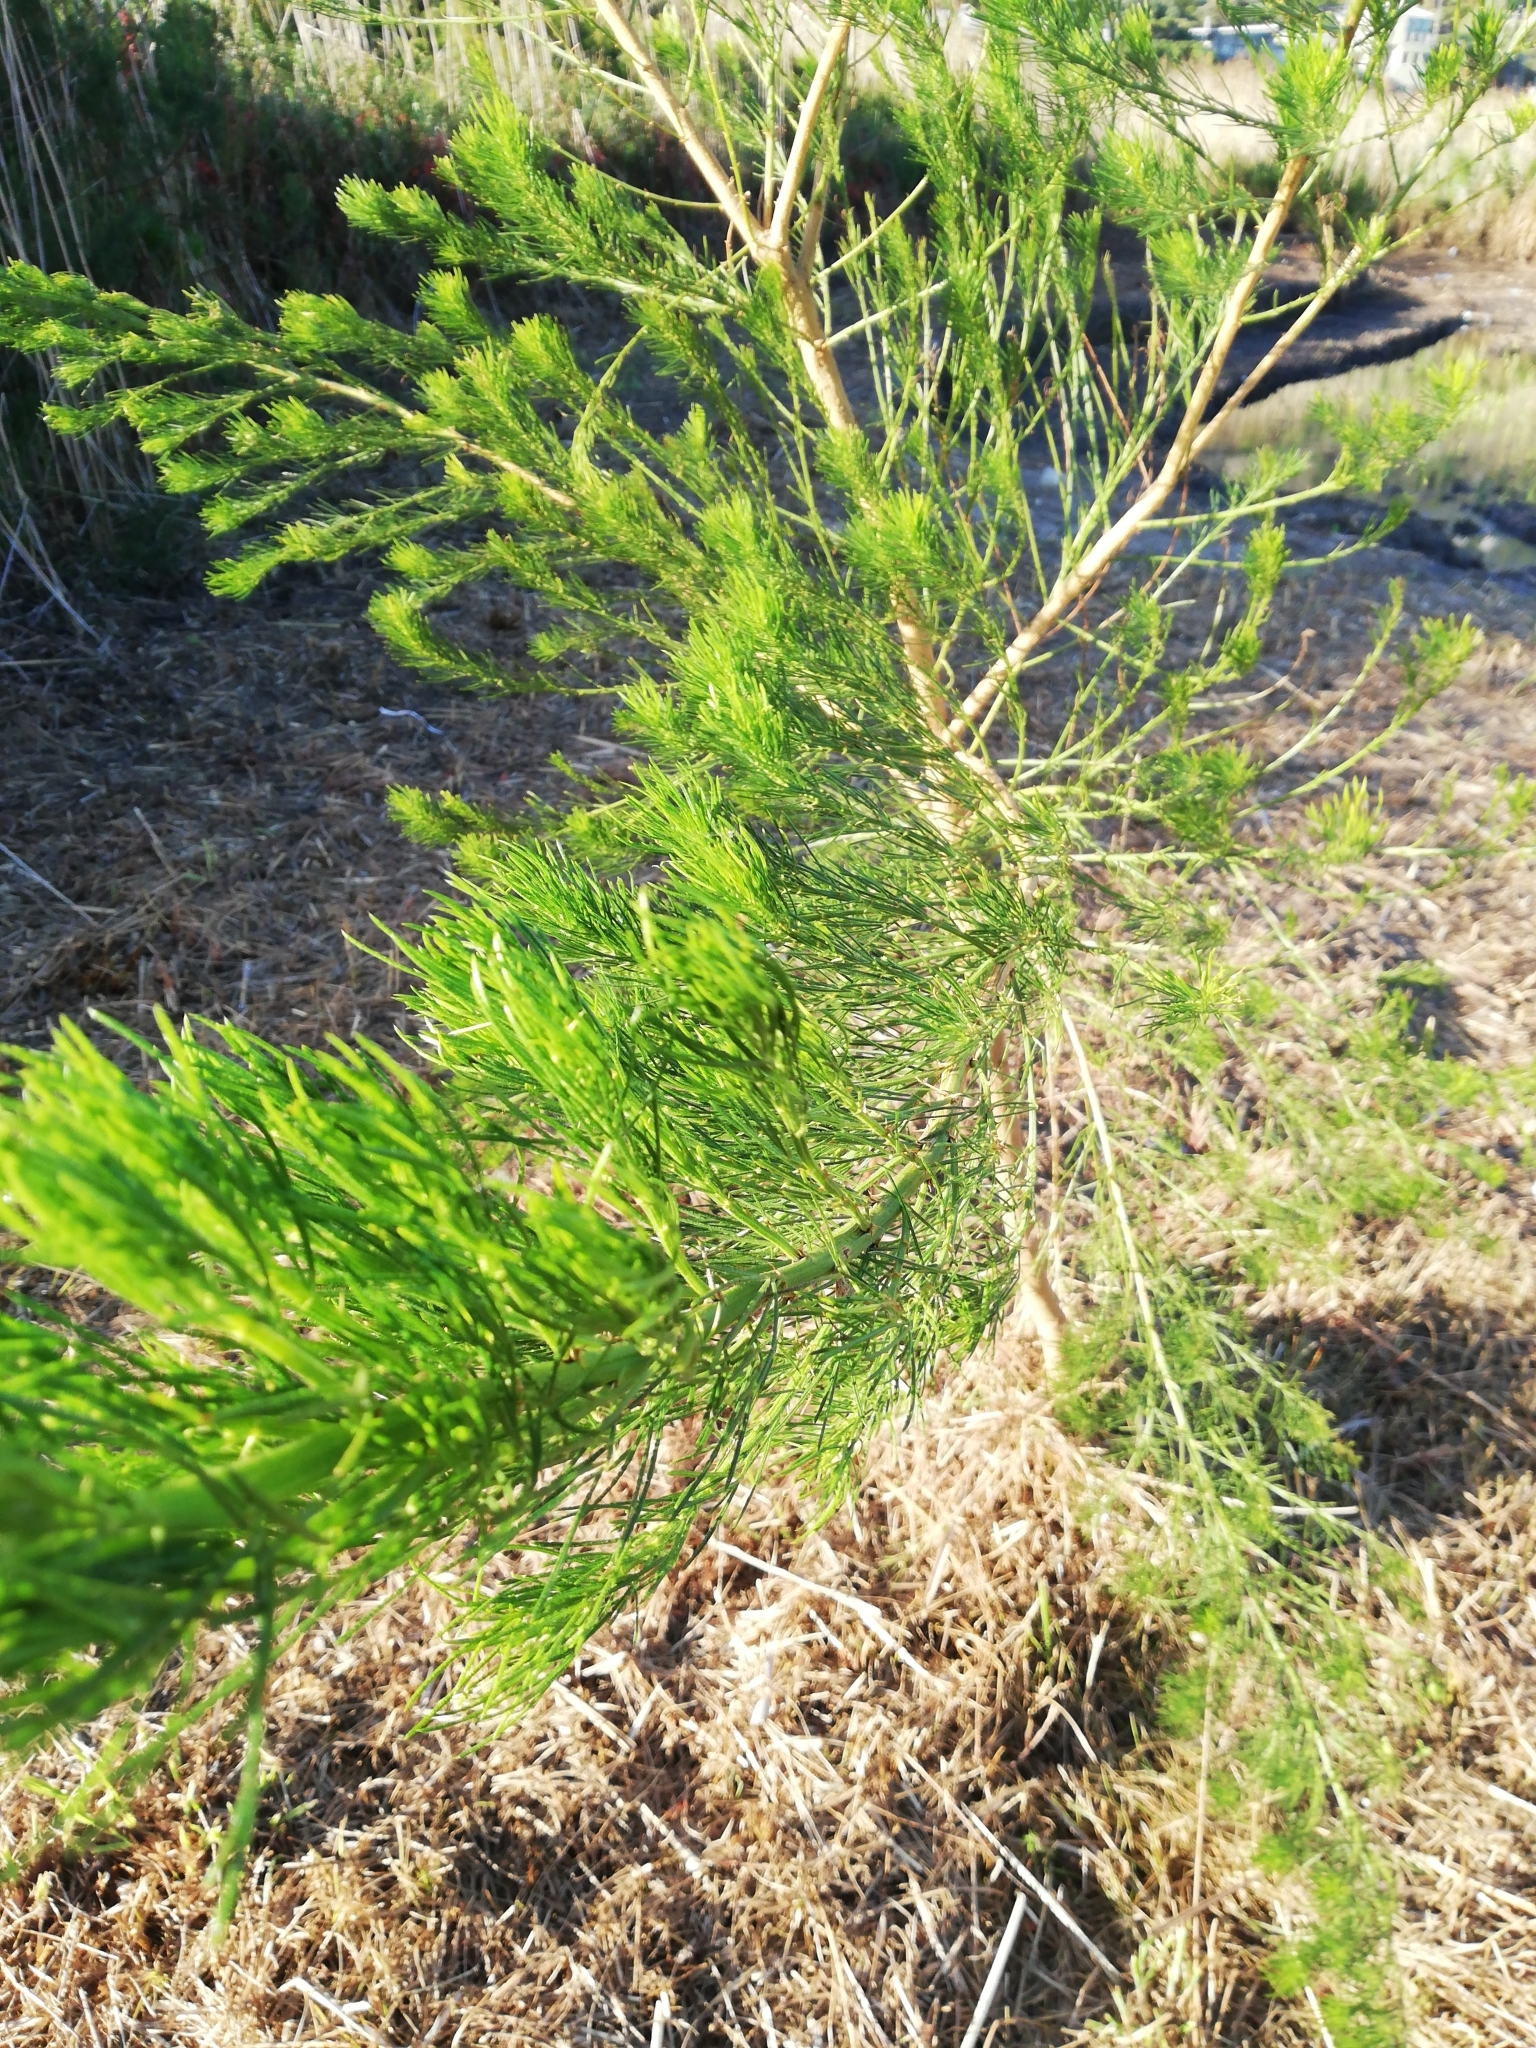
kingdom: Plantae
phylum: Tracheophyta
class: Magnoliopsida
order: Fabales
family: Fabaceae
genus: Psoralea
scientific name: Psoralea pinnata
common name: African scurfpea
